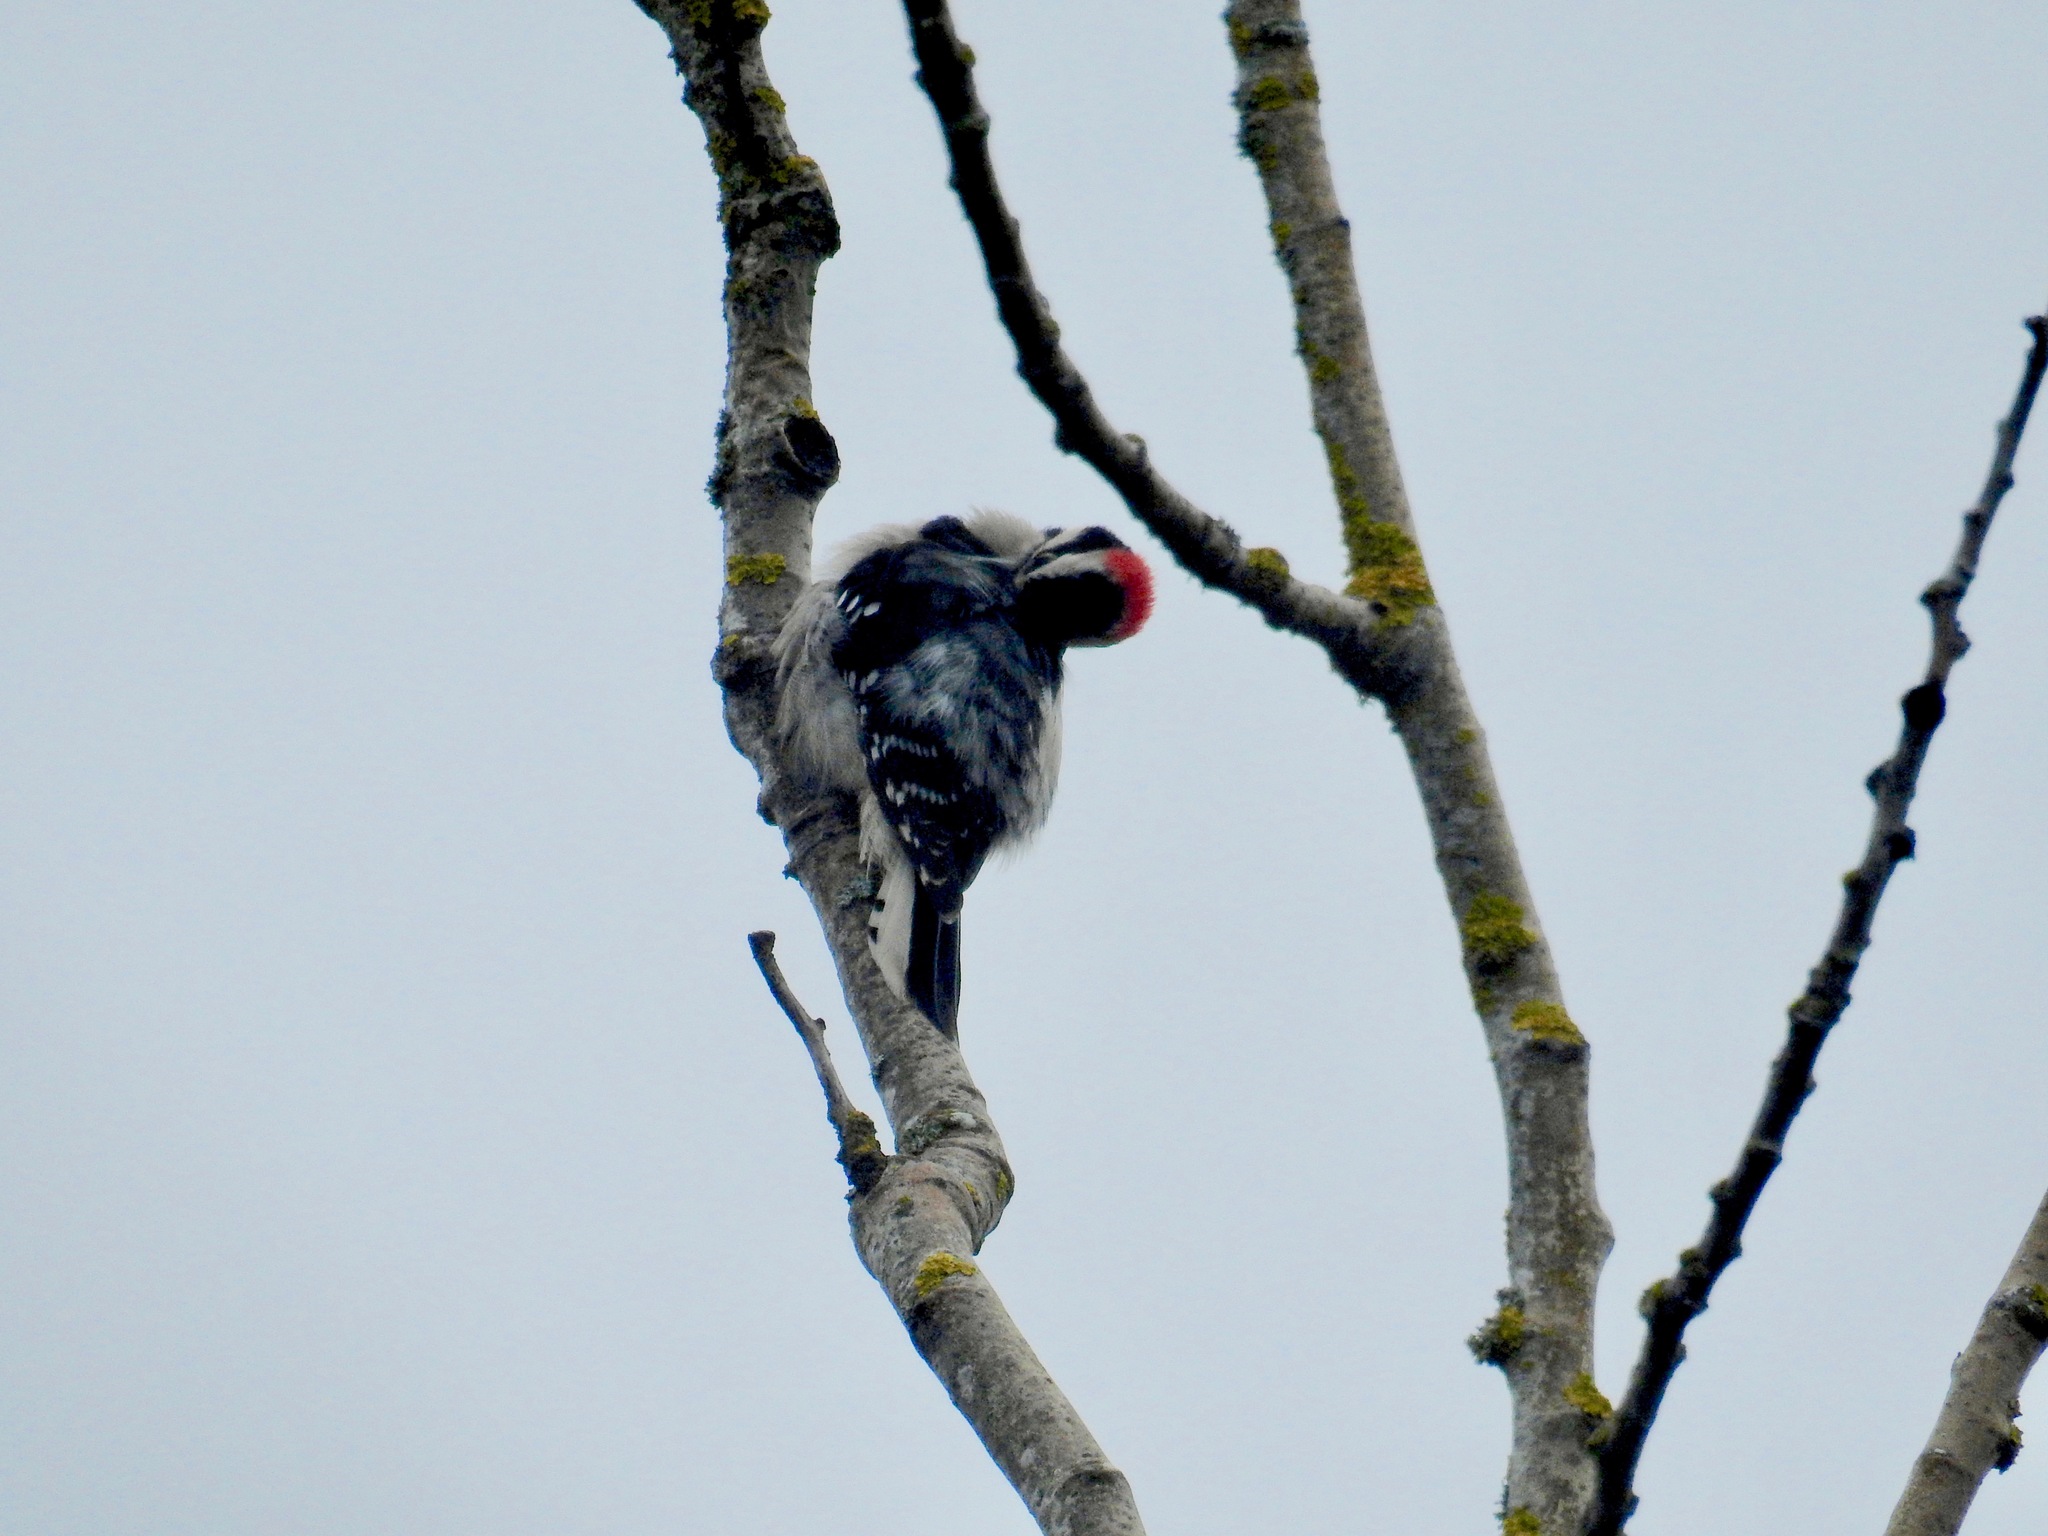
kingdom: Animalia
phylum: Chordata
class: Aves
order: Piciformes
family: Picidae
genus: Dryobates
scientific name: Dryobates pubescens
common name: Downy woodpecker
